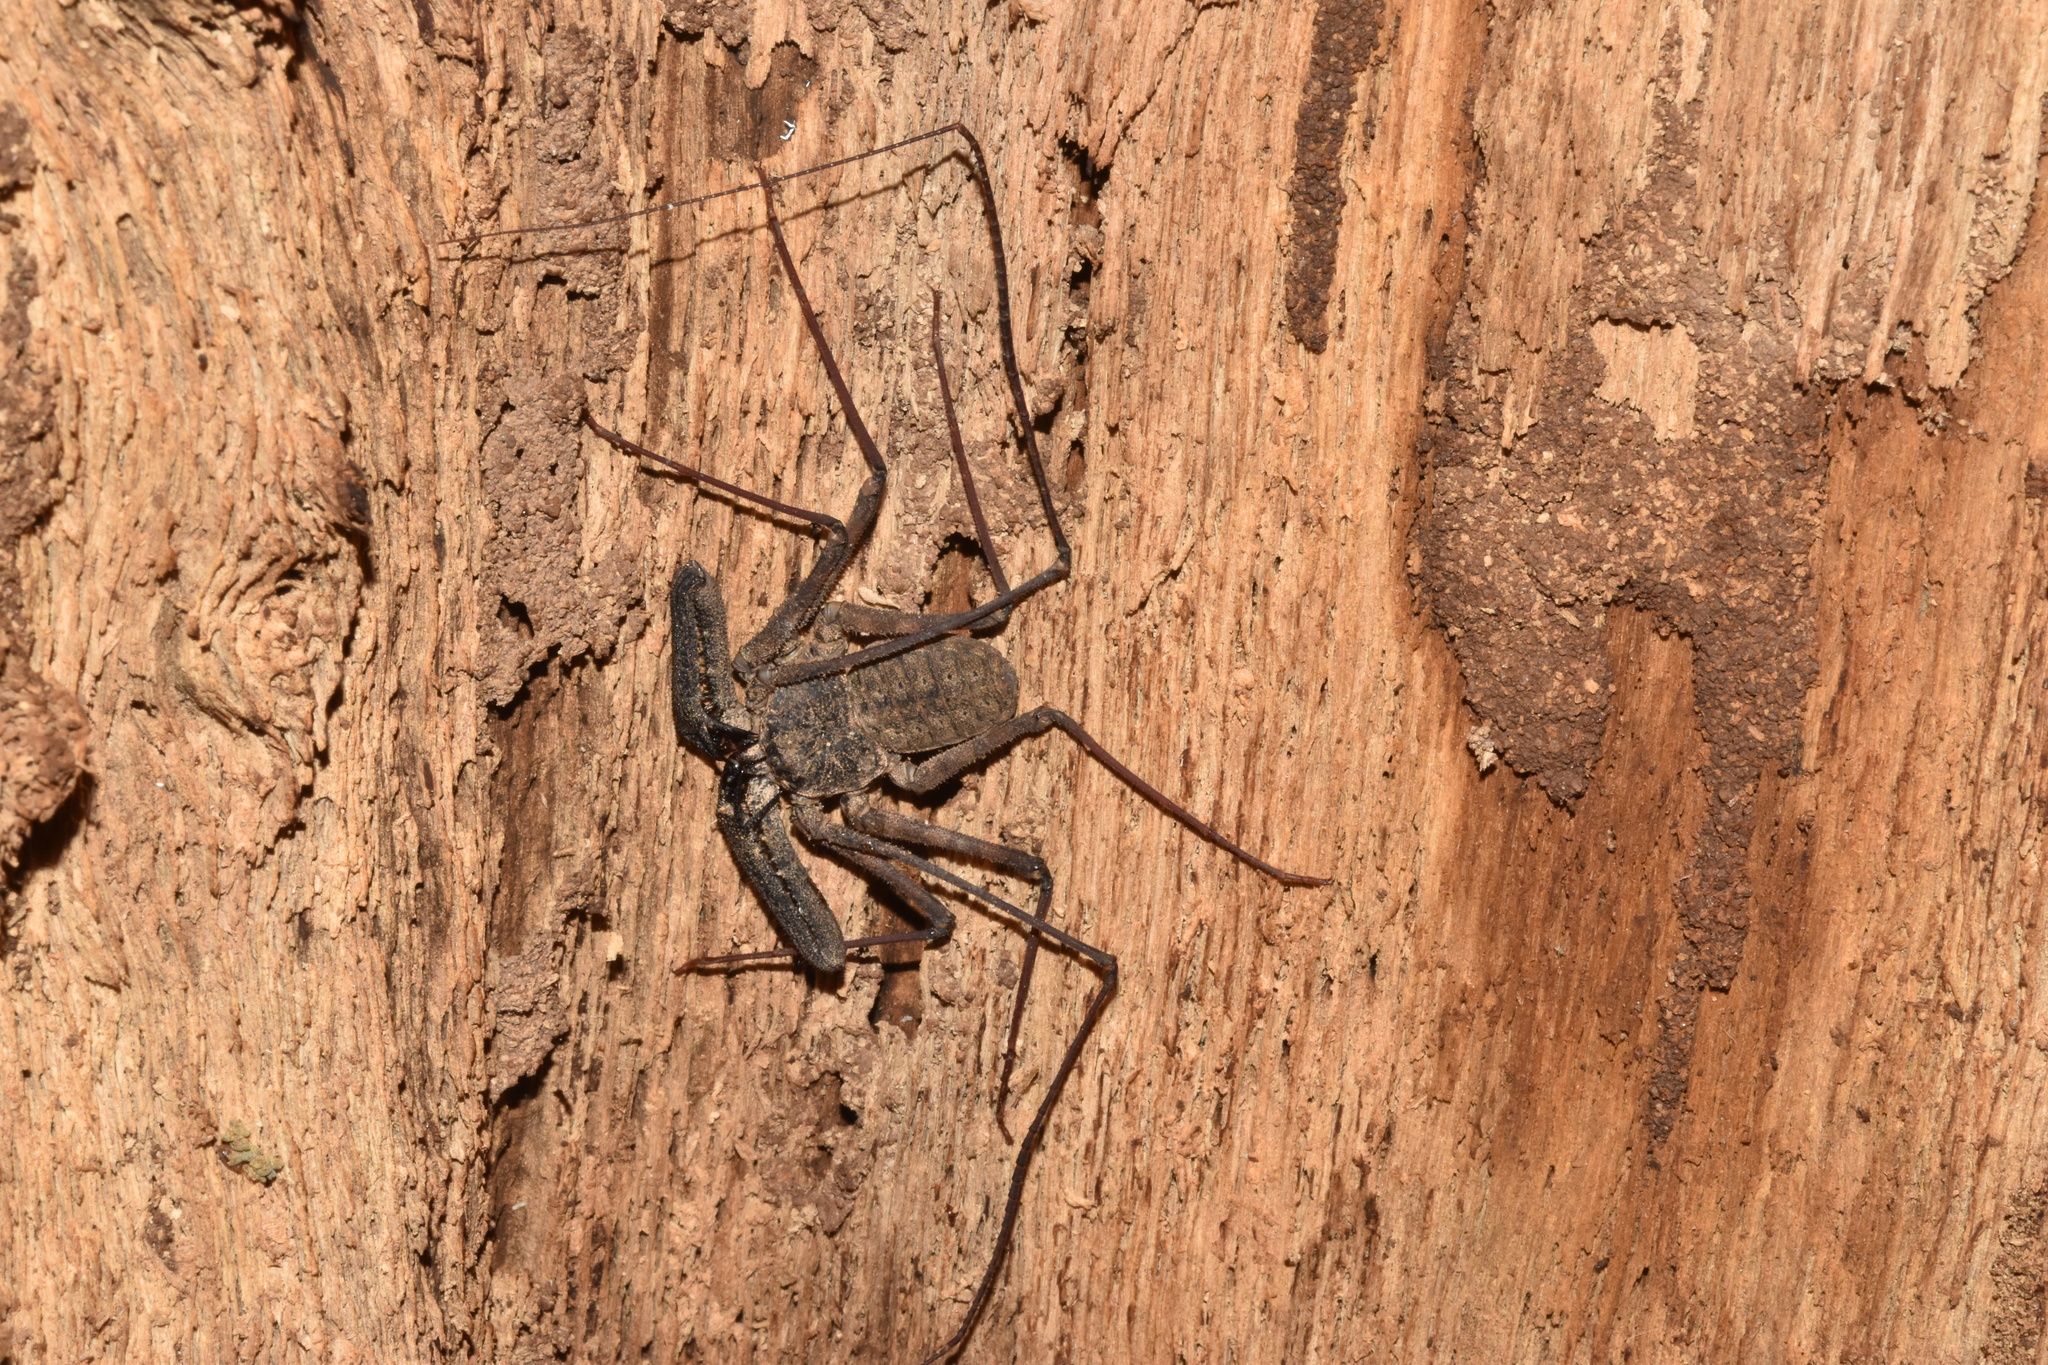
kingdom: Animalia
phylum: Arthropoda
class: Arachnida
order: Amblypygi
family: Phrynichidae
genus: Damon
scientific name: Damon annulatipes
